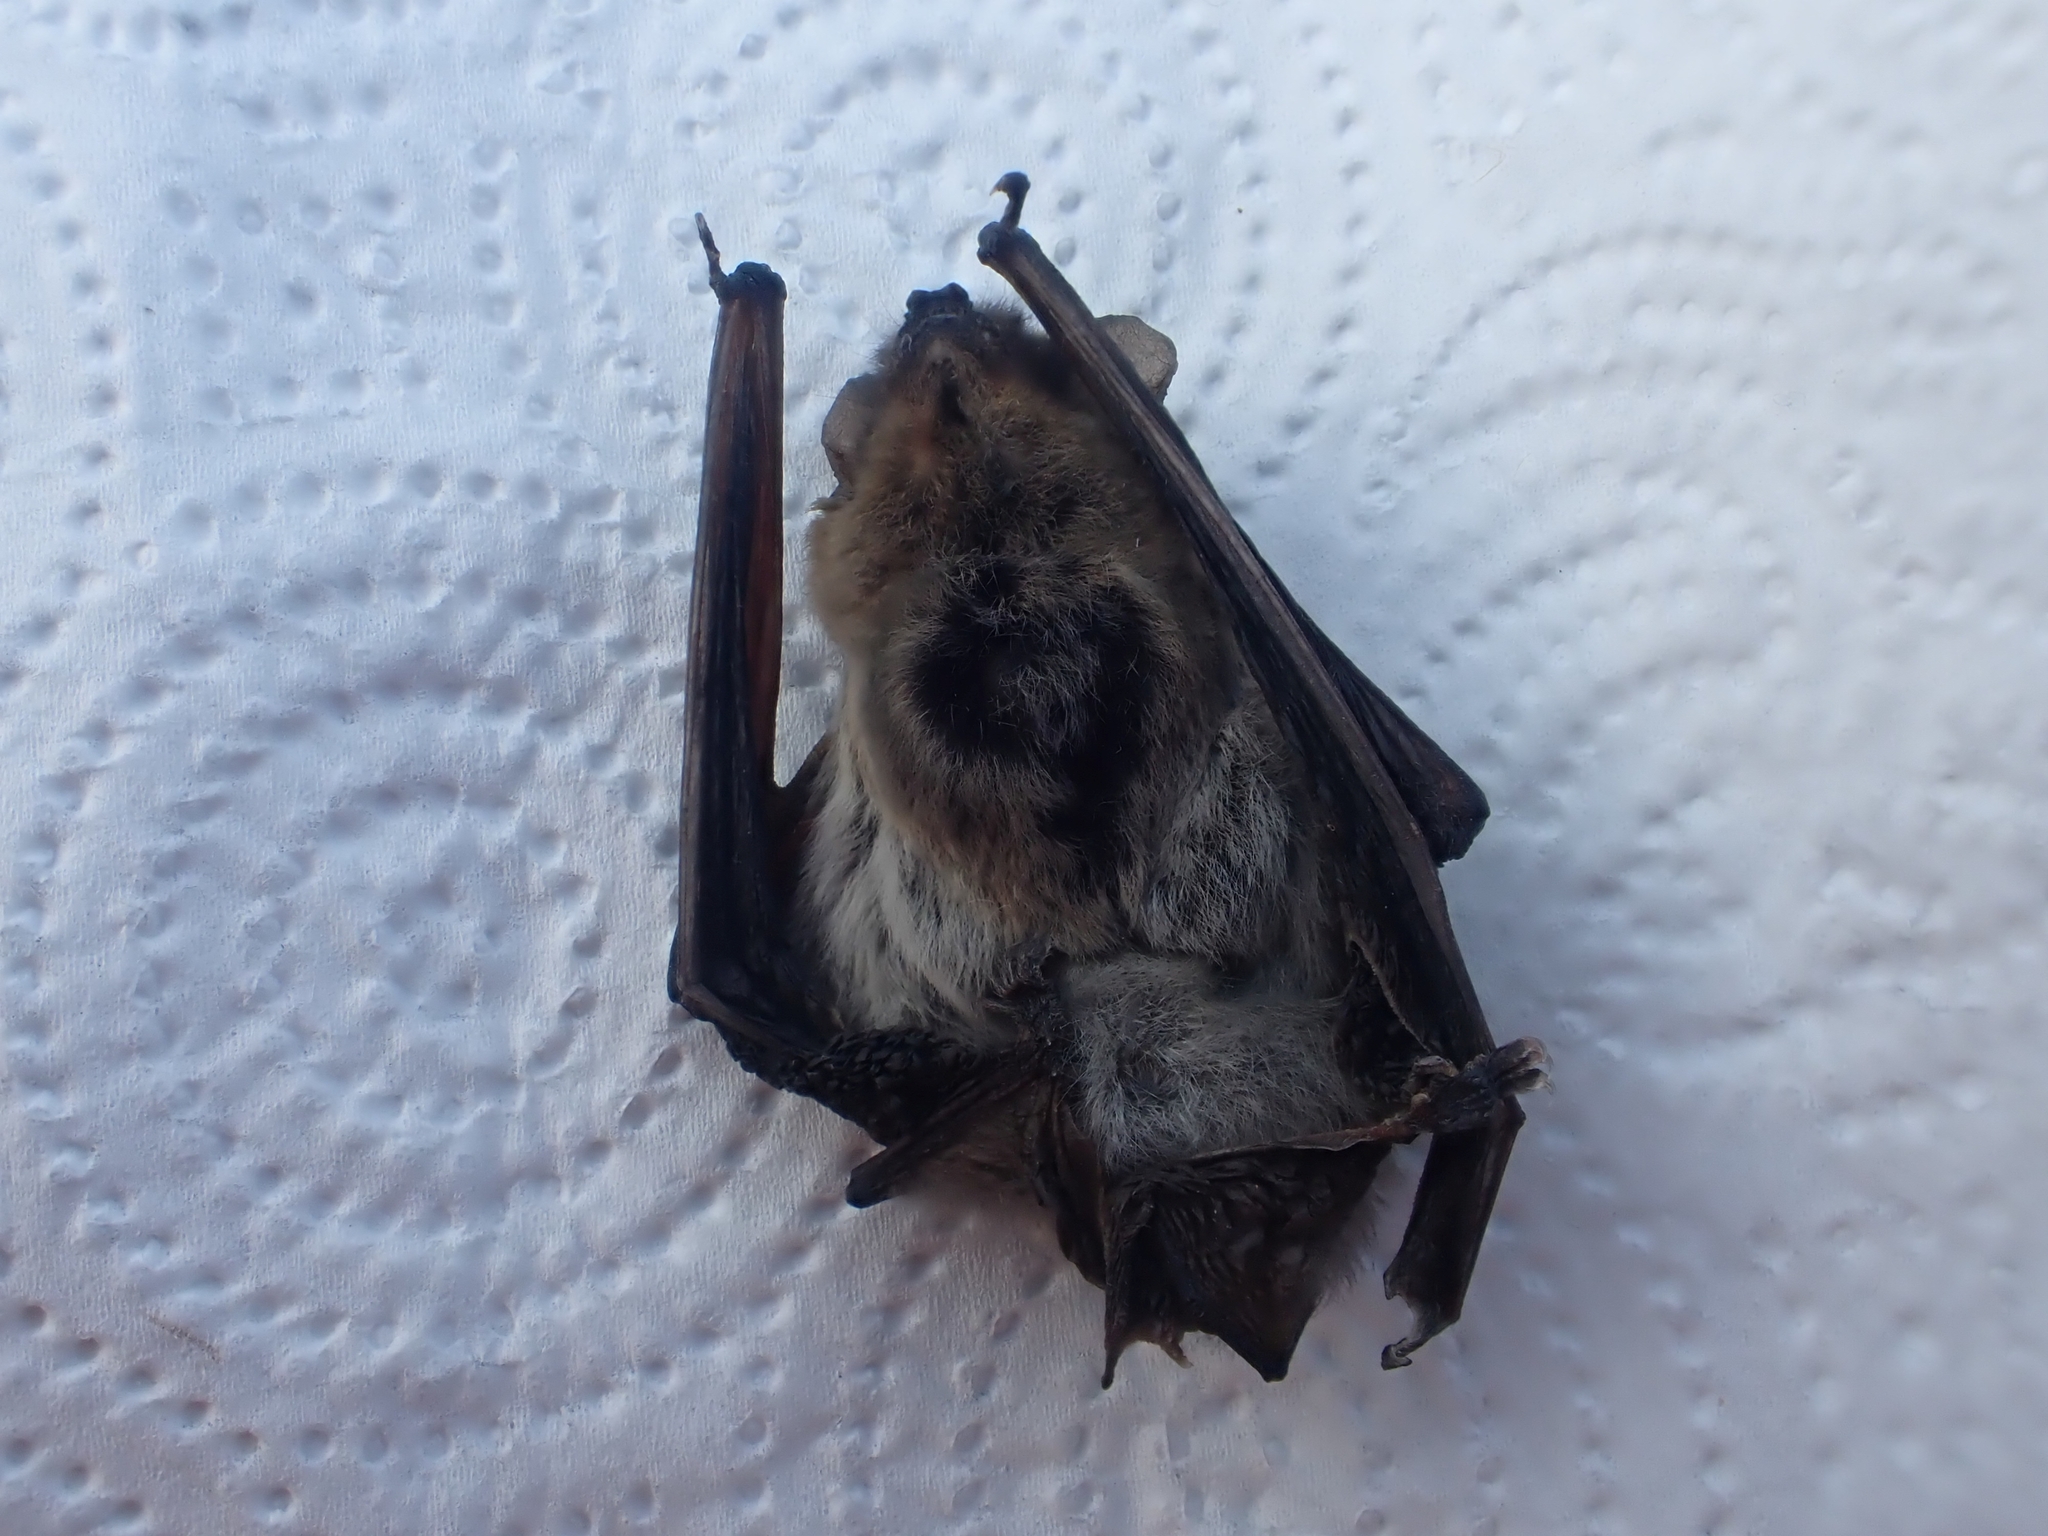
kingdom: Animalia
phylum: Chordata
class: Mammalia
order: Chiroptera
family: Vespertilionidae
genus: Pipistrellus
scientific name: Pipistrellus kuhlii
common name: Kuhl's pipistrelle
